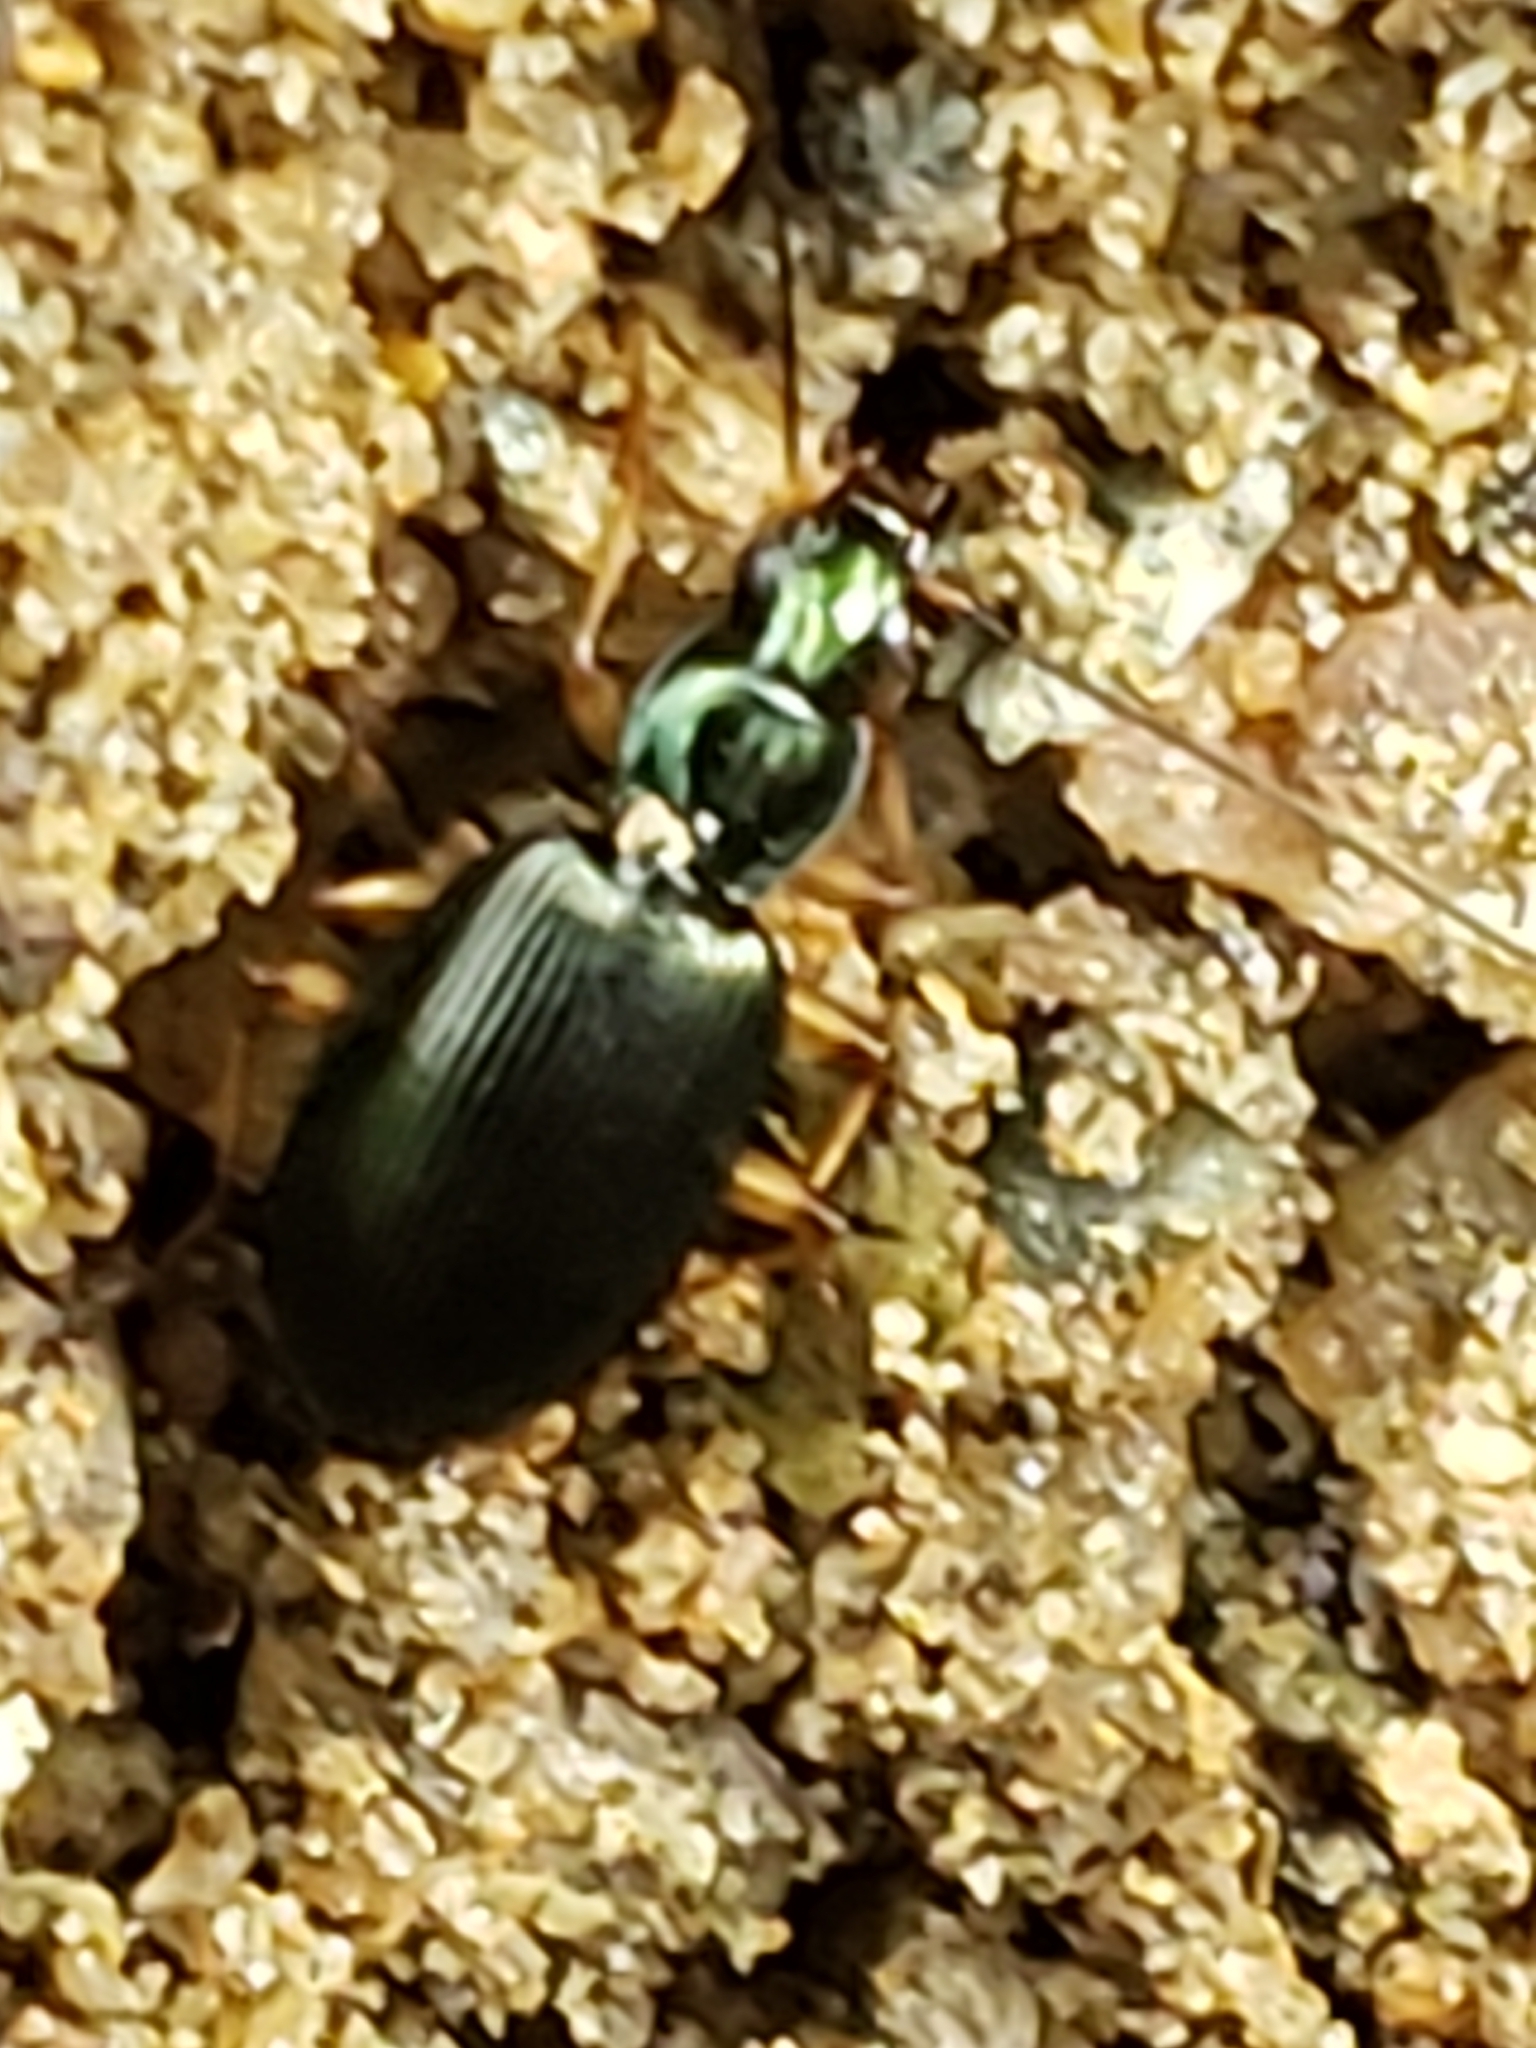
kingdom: Animalia
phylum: Arthropoda
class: Insecta
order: Coleoptera
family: Carabidae
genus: Agonum
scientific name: Agonum extensicolle
